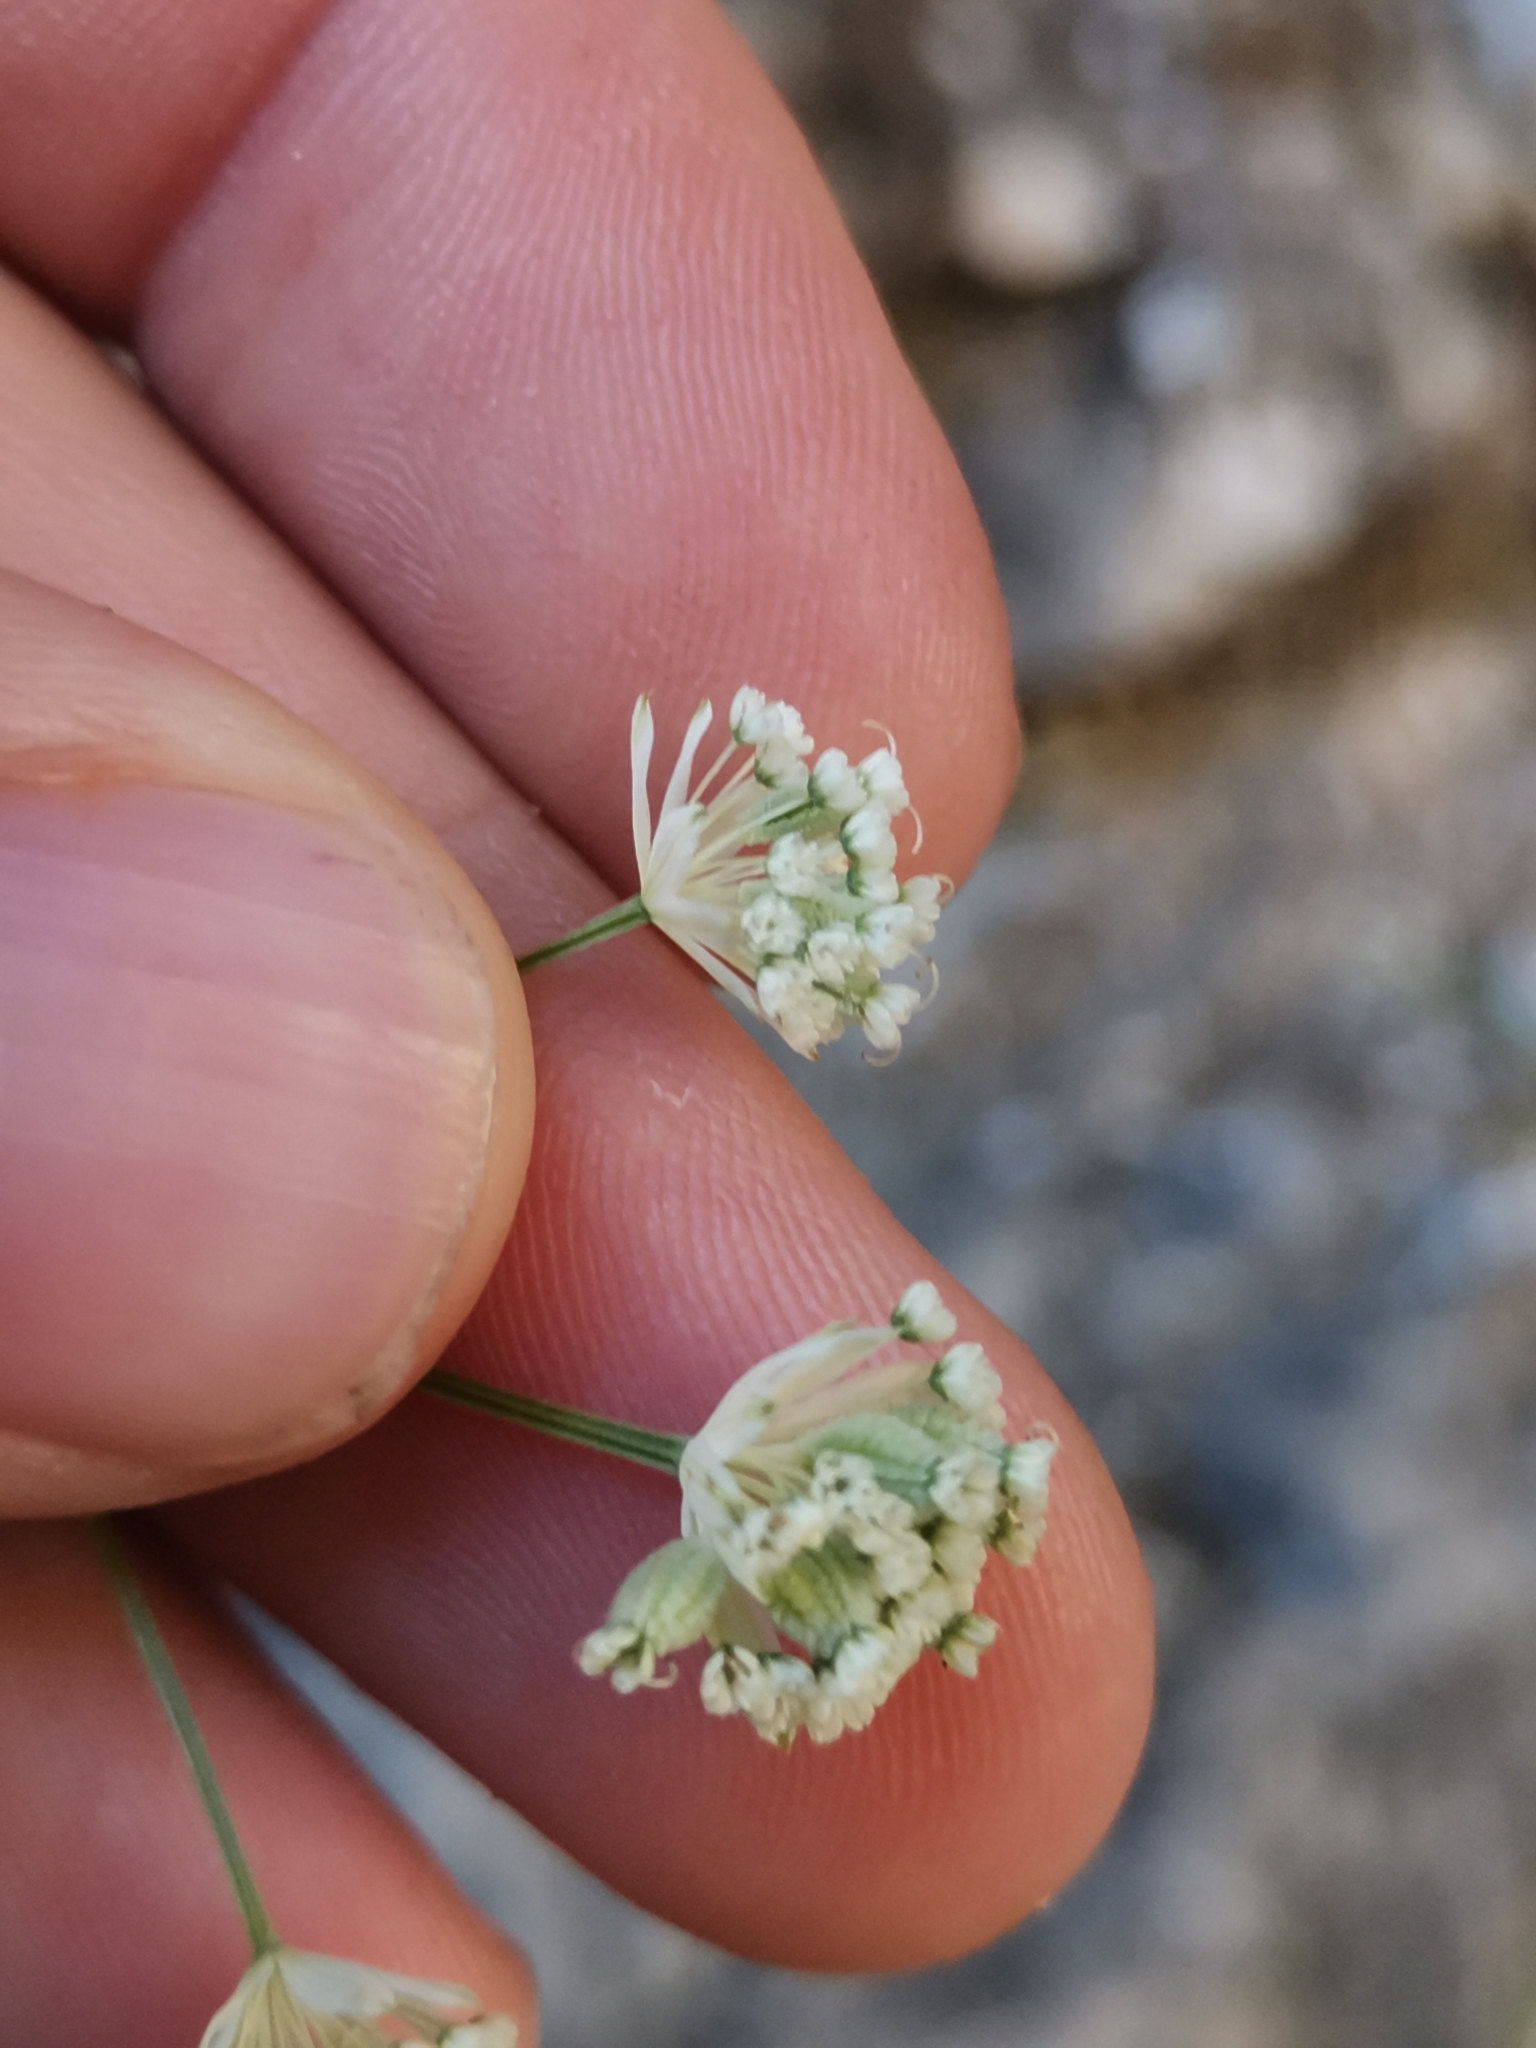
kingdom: Plantae
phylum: Tracheophyta
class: Magnoliopsida
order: Apiales
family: Apiaceae
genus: Astrantia
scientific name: Astrantia carniolica
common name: Carnic masterwort
